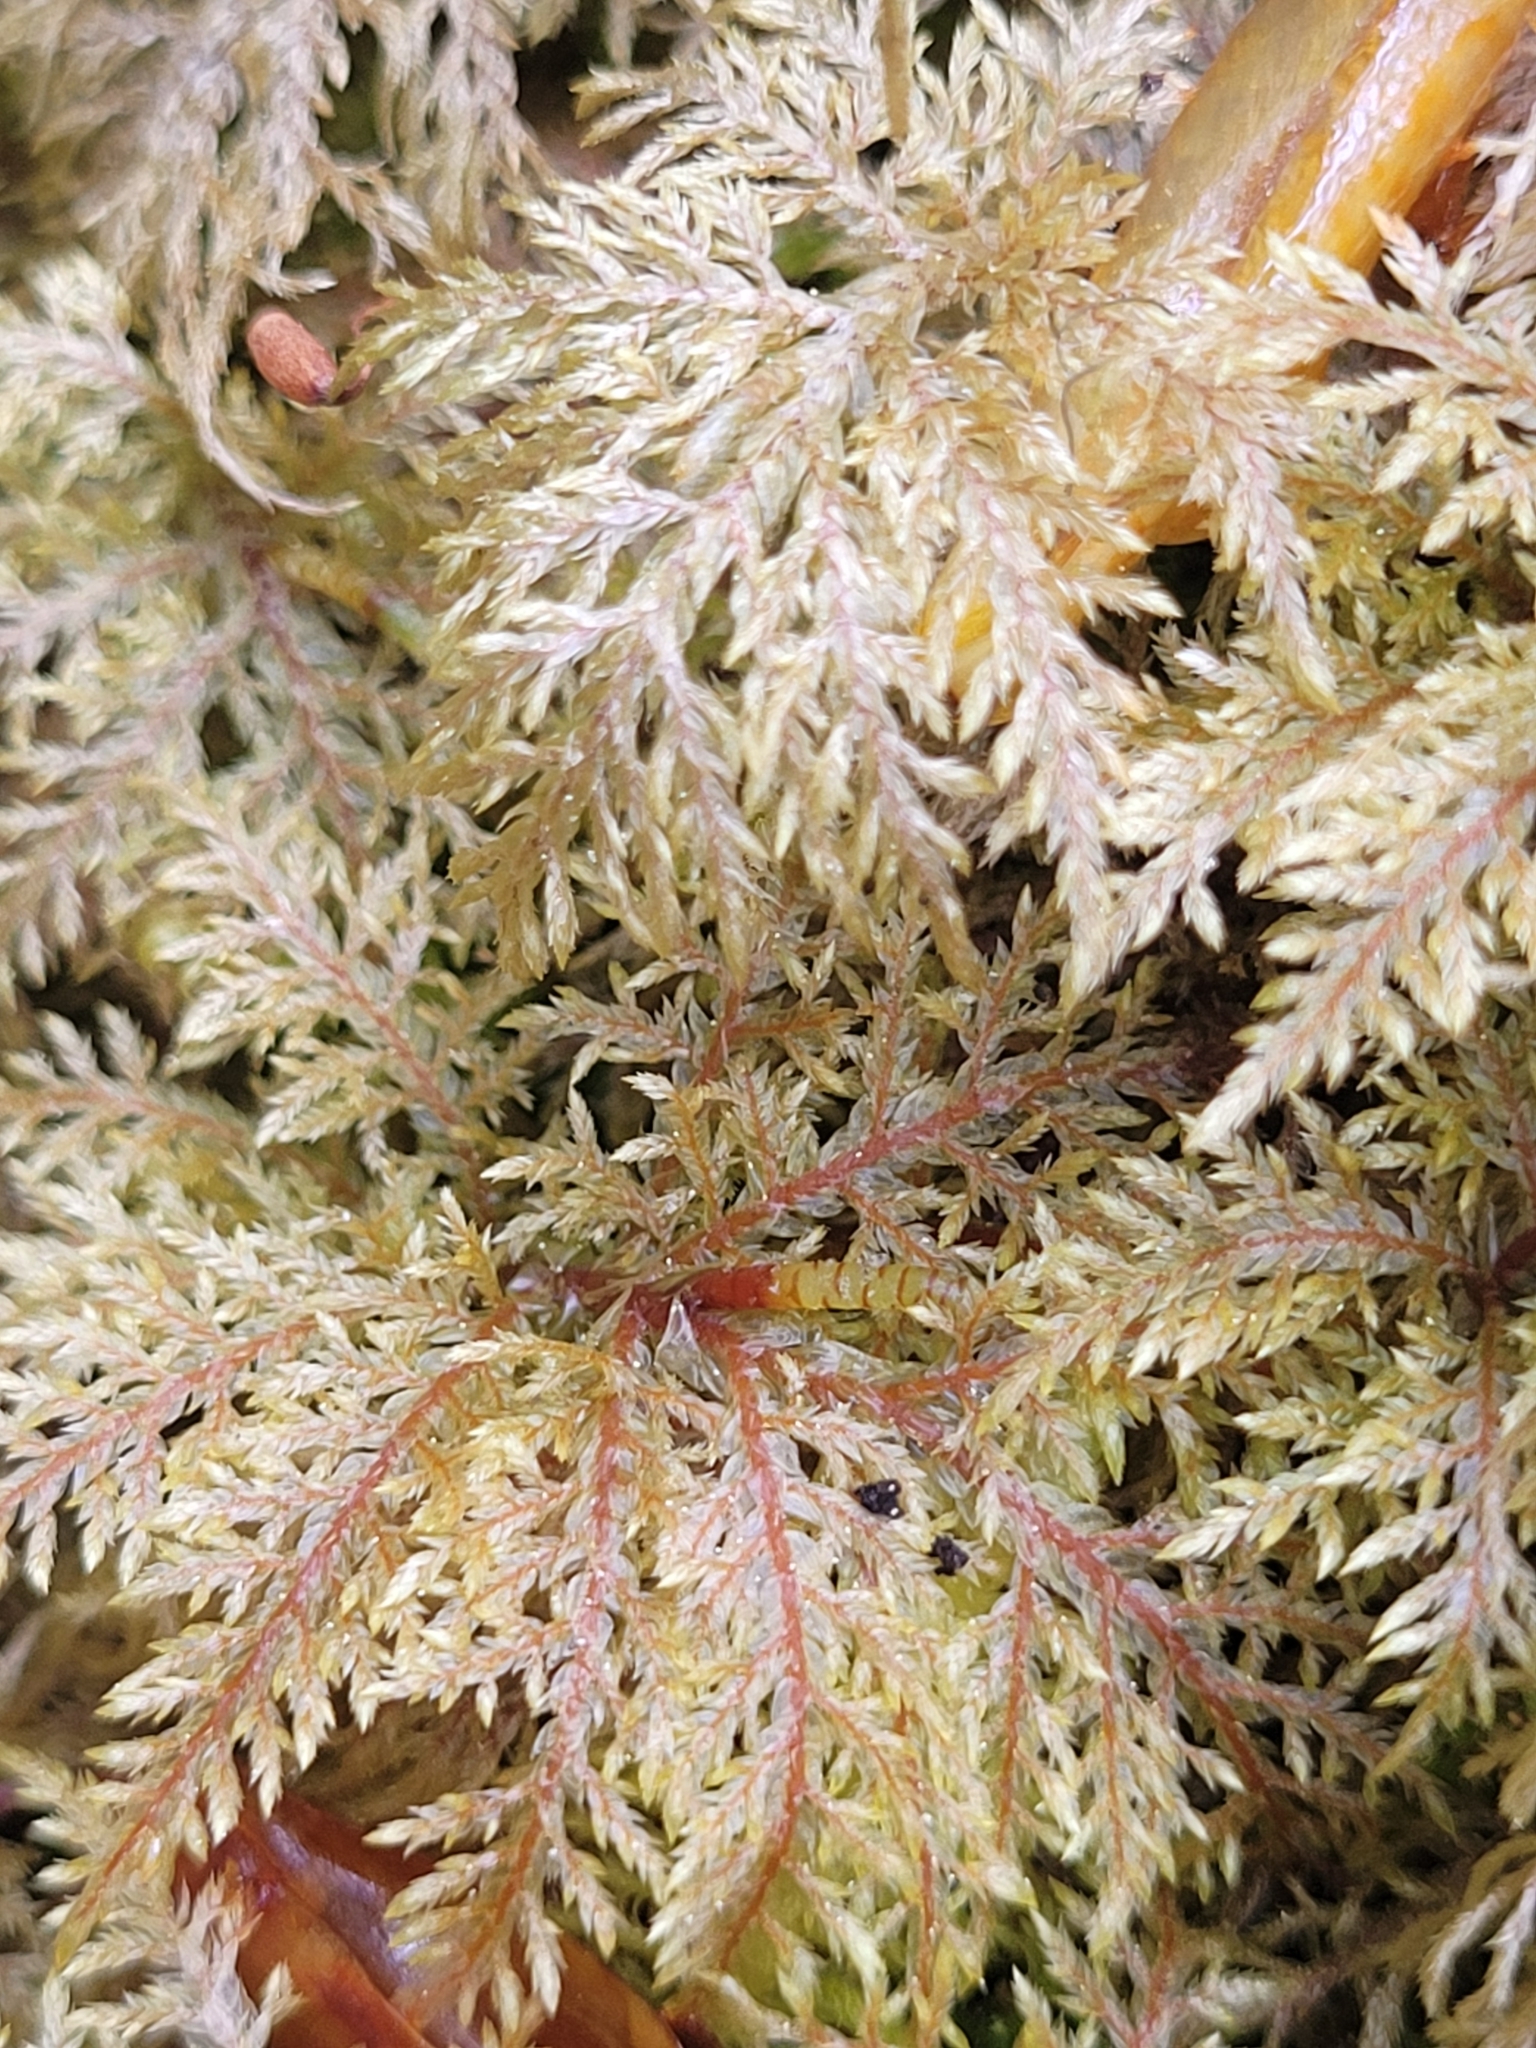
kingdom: Plantae
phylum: Bryophyta
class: Bryopsida
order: Hypnales
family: Hylocomiaceae
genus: Hylocomium
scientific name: Hylocomium splendens
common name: Stairstep moss
